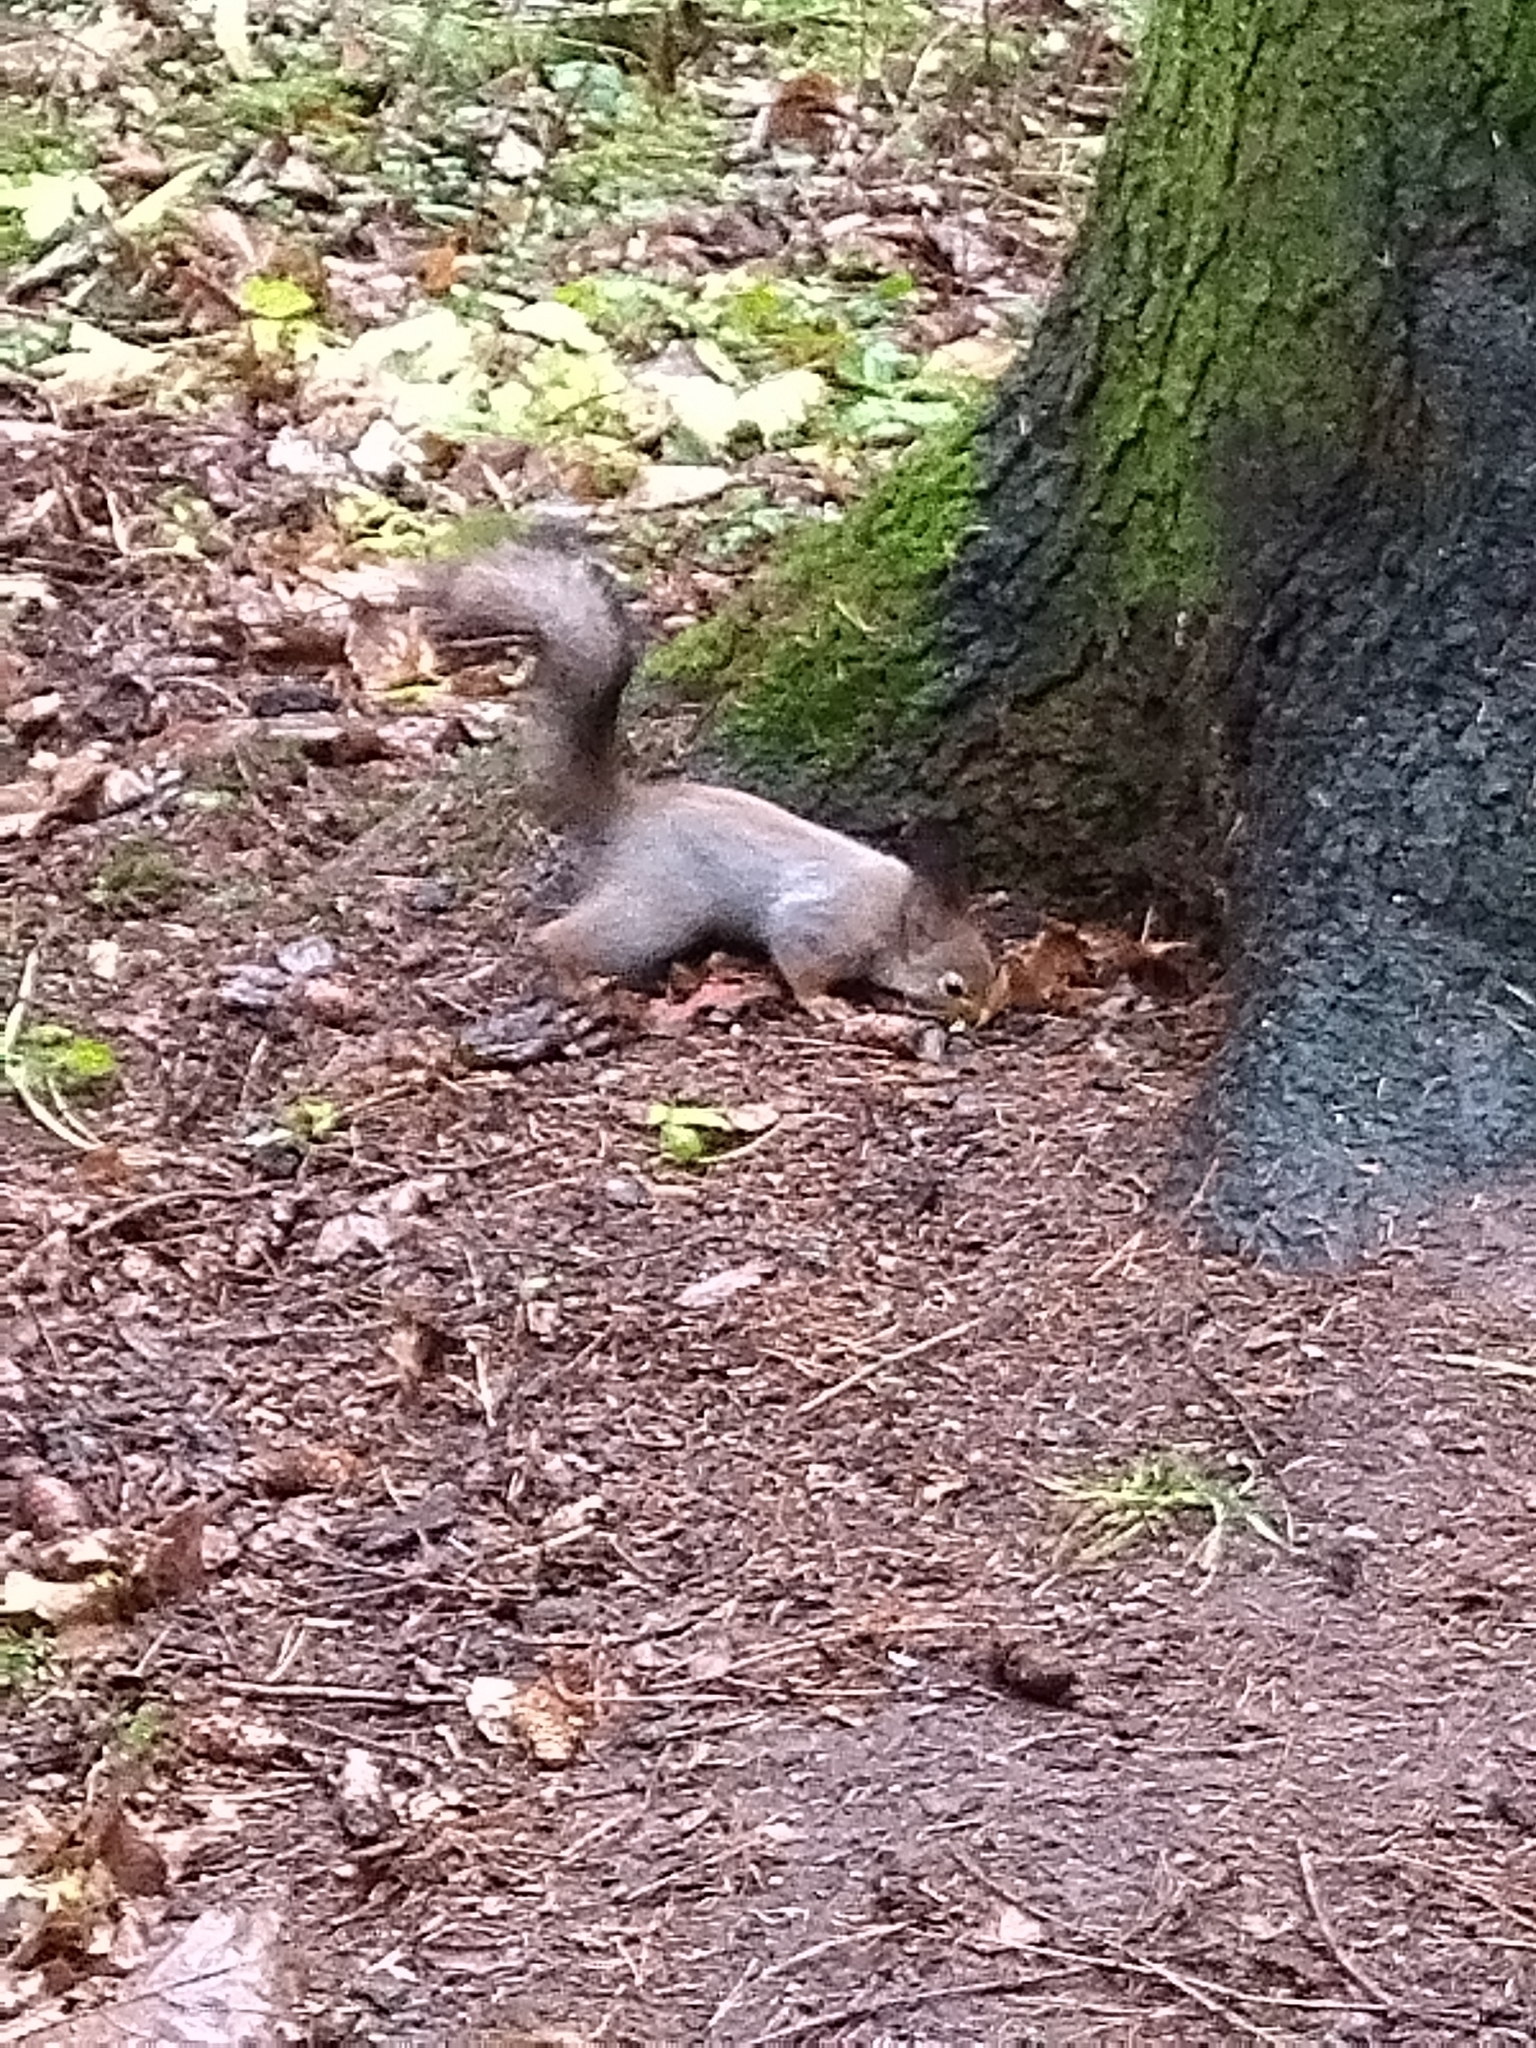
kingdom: Animalia
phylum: Chordata
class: Mammalia
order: Rodentia
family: Sciuridae
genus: Sciurus
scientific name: Sciurus vulgaris
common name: Eurasian red squirrel
